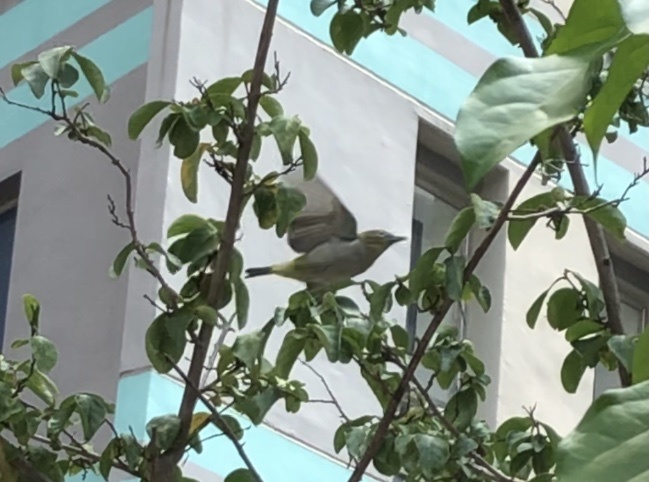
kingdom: Animalia
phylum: Chordata
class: Aves
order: Passeriformes
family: Zosteropidae
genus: Zosterops
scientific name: Zosterops simplex
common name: Swinhoe's white-eye
